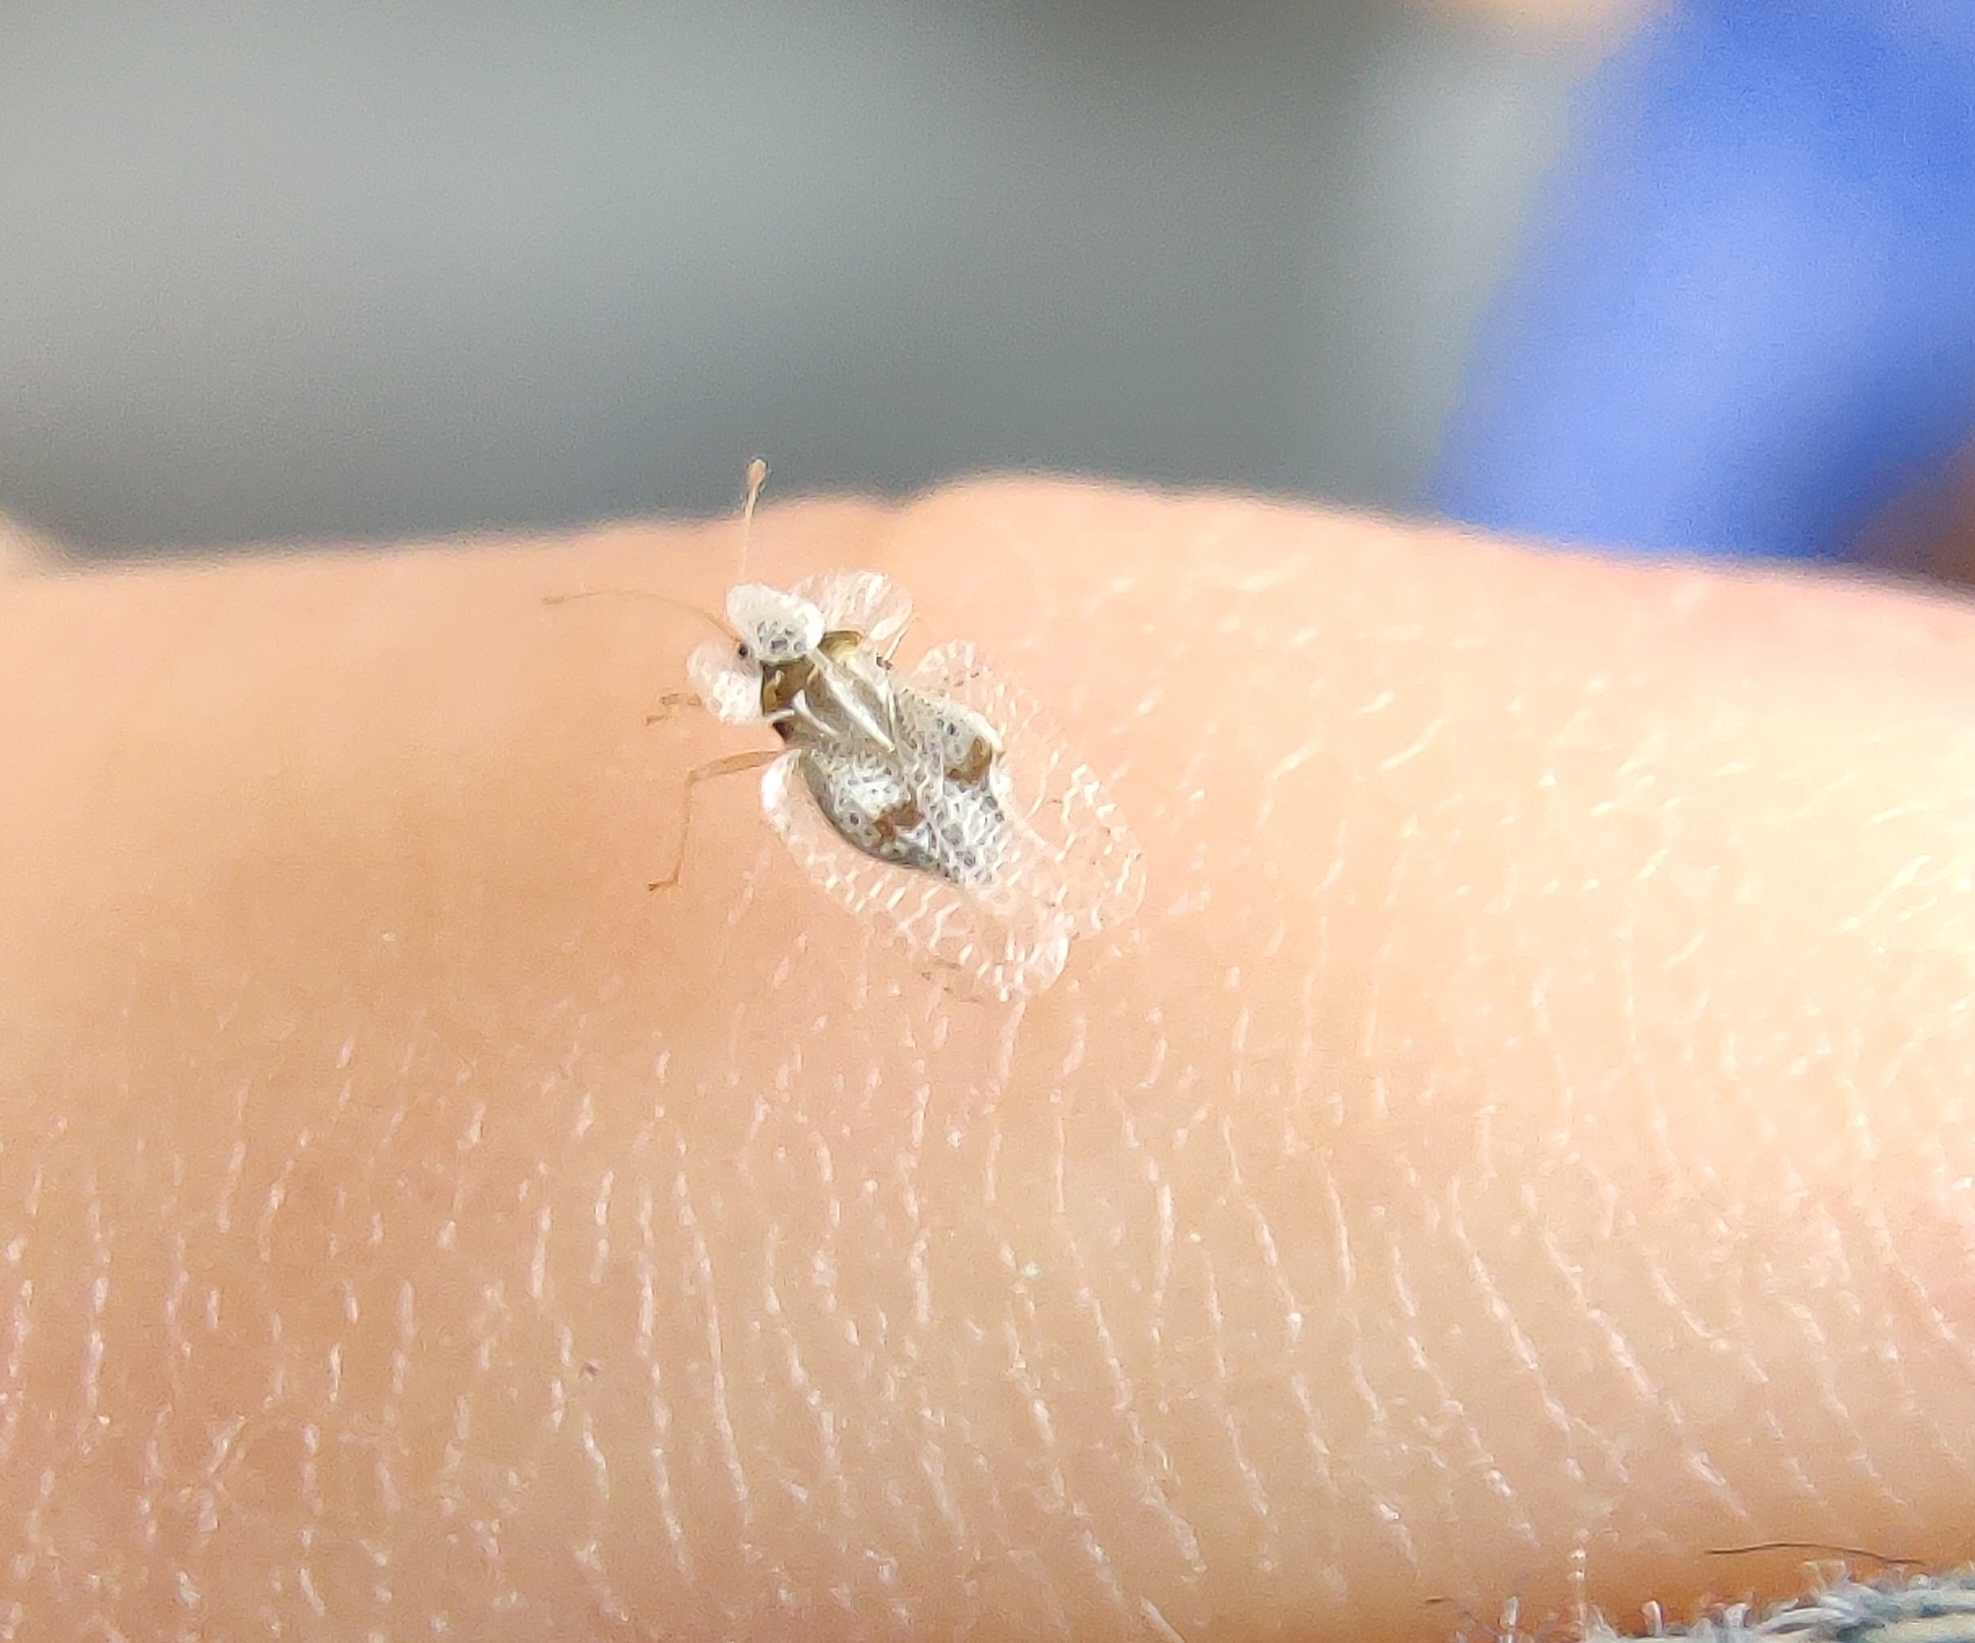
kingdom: Animalia
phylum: Arthropoda
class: Insecta
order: Hemiptera
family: Tingidae
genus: Corythucha
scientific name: Corythucha ciliata
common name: Sycamore lace bug
